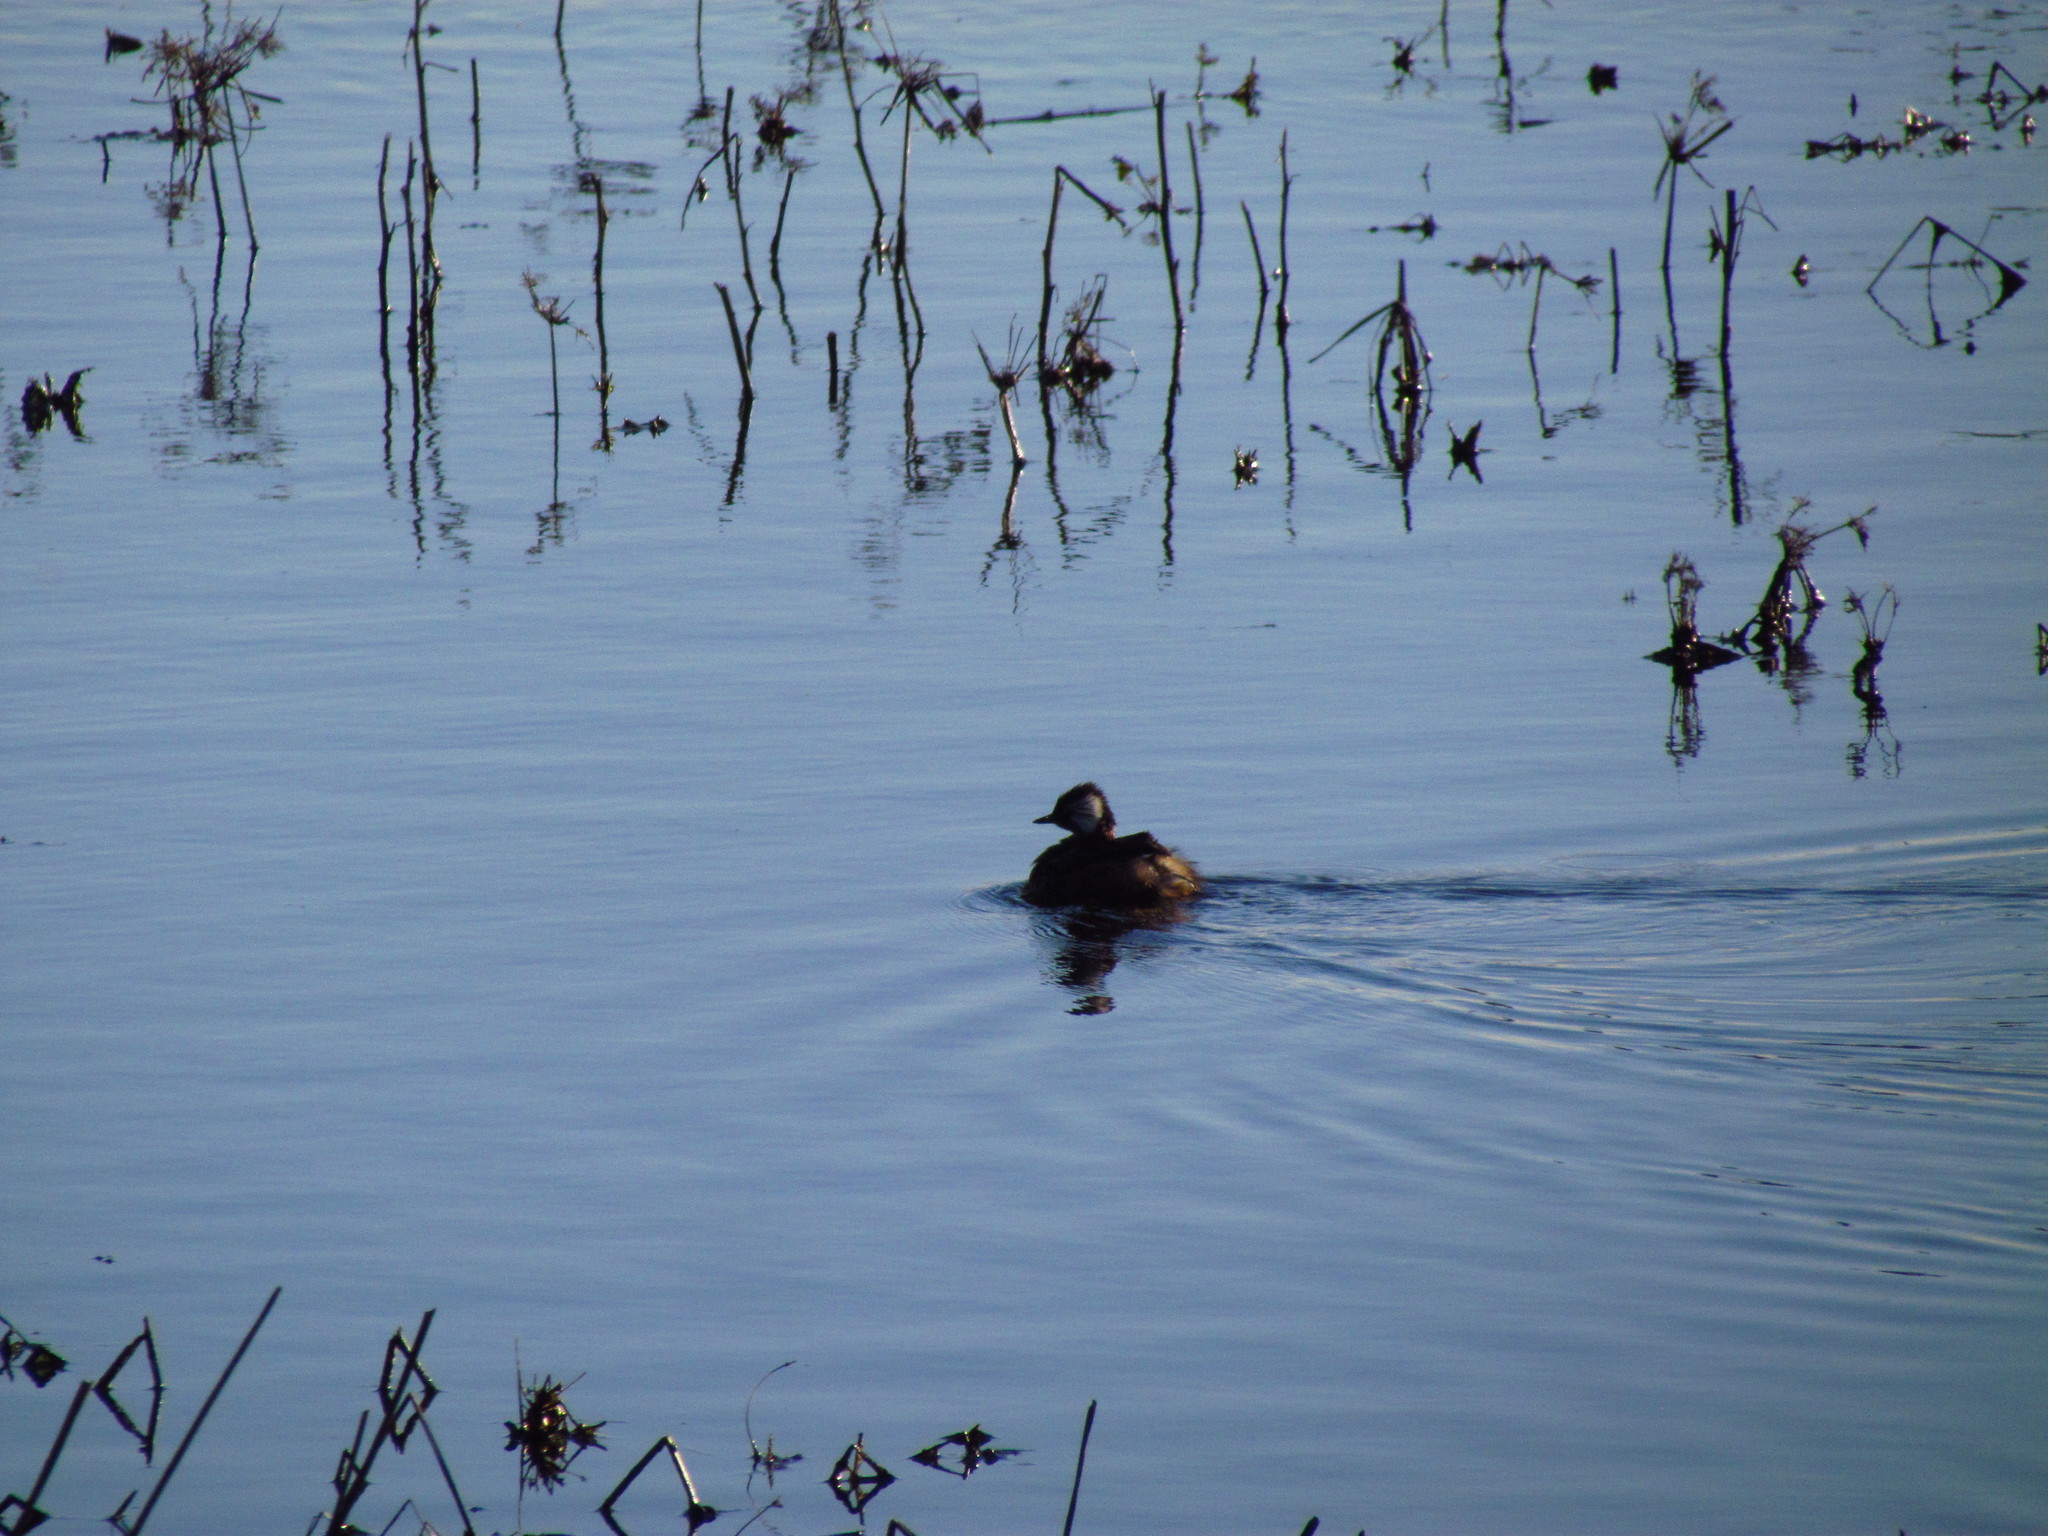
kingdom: Animalia
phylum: Chordata
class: Aves
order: Podicipediformes
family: Podicipedidae
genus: Rollandia
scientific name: Rollandia rolland
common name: White-tufted grebe
